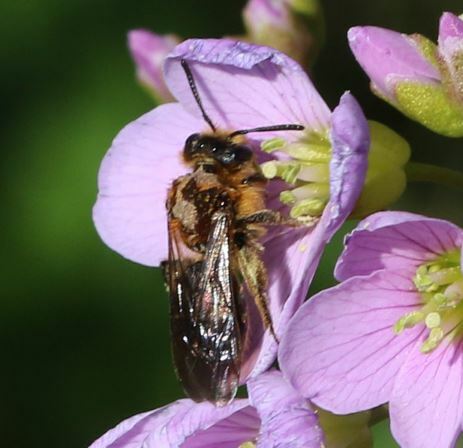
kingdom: Animalia
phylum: Arthropoda
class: Insecta
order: Hymenoptera
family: Andrenidae
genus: Andrena
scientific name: Andrena lagopus
